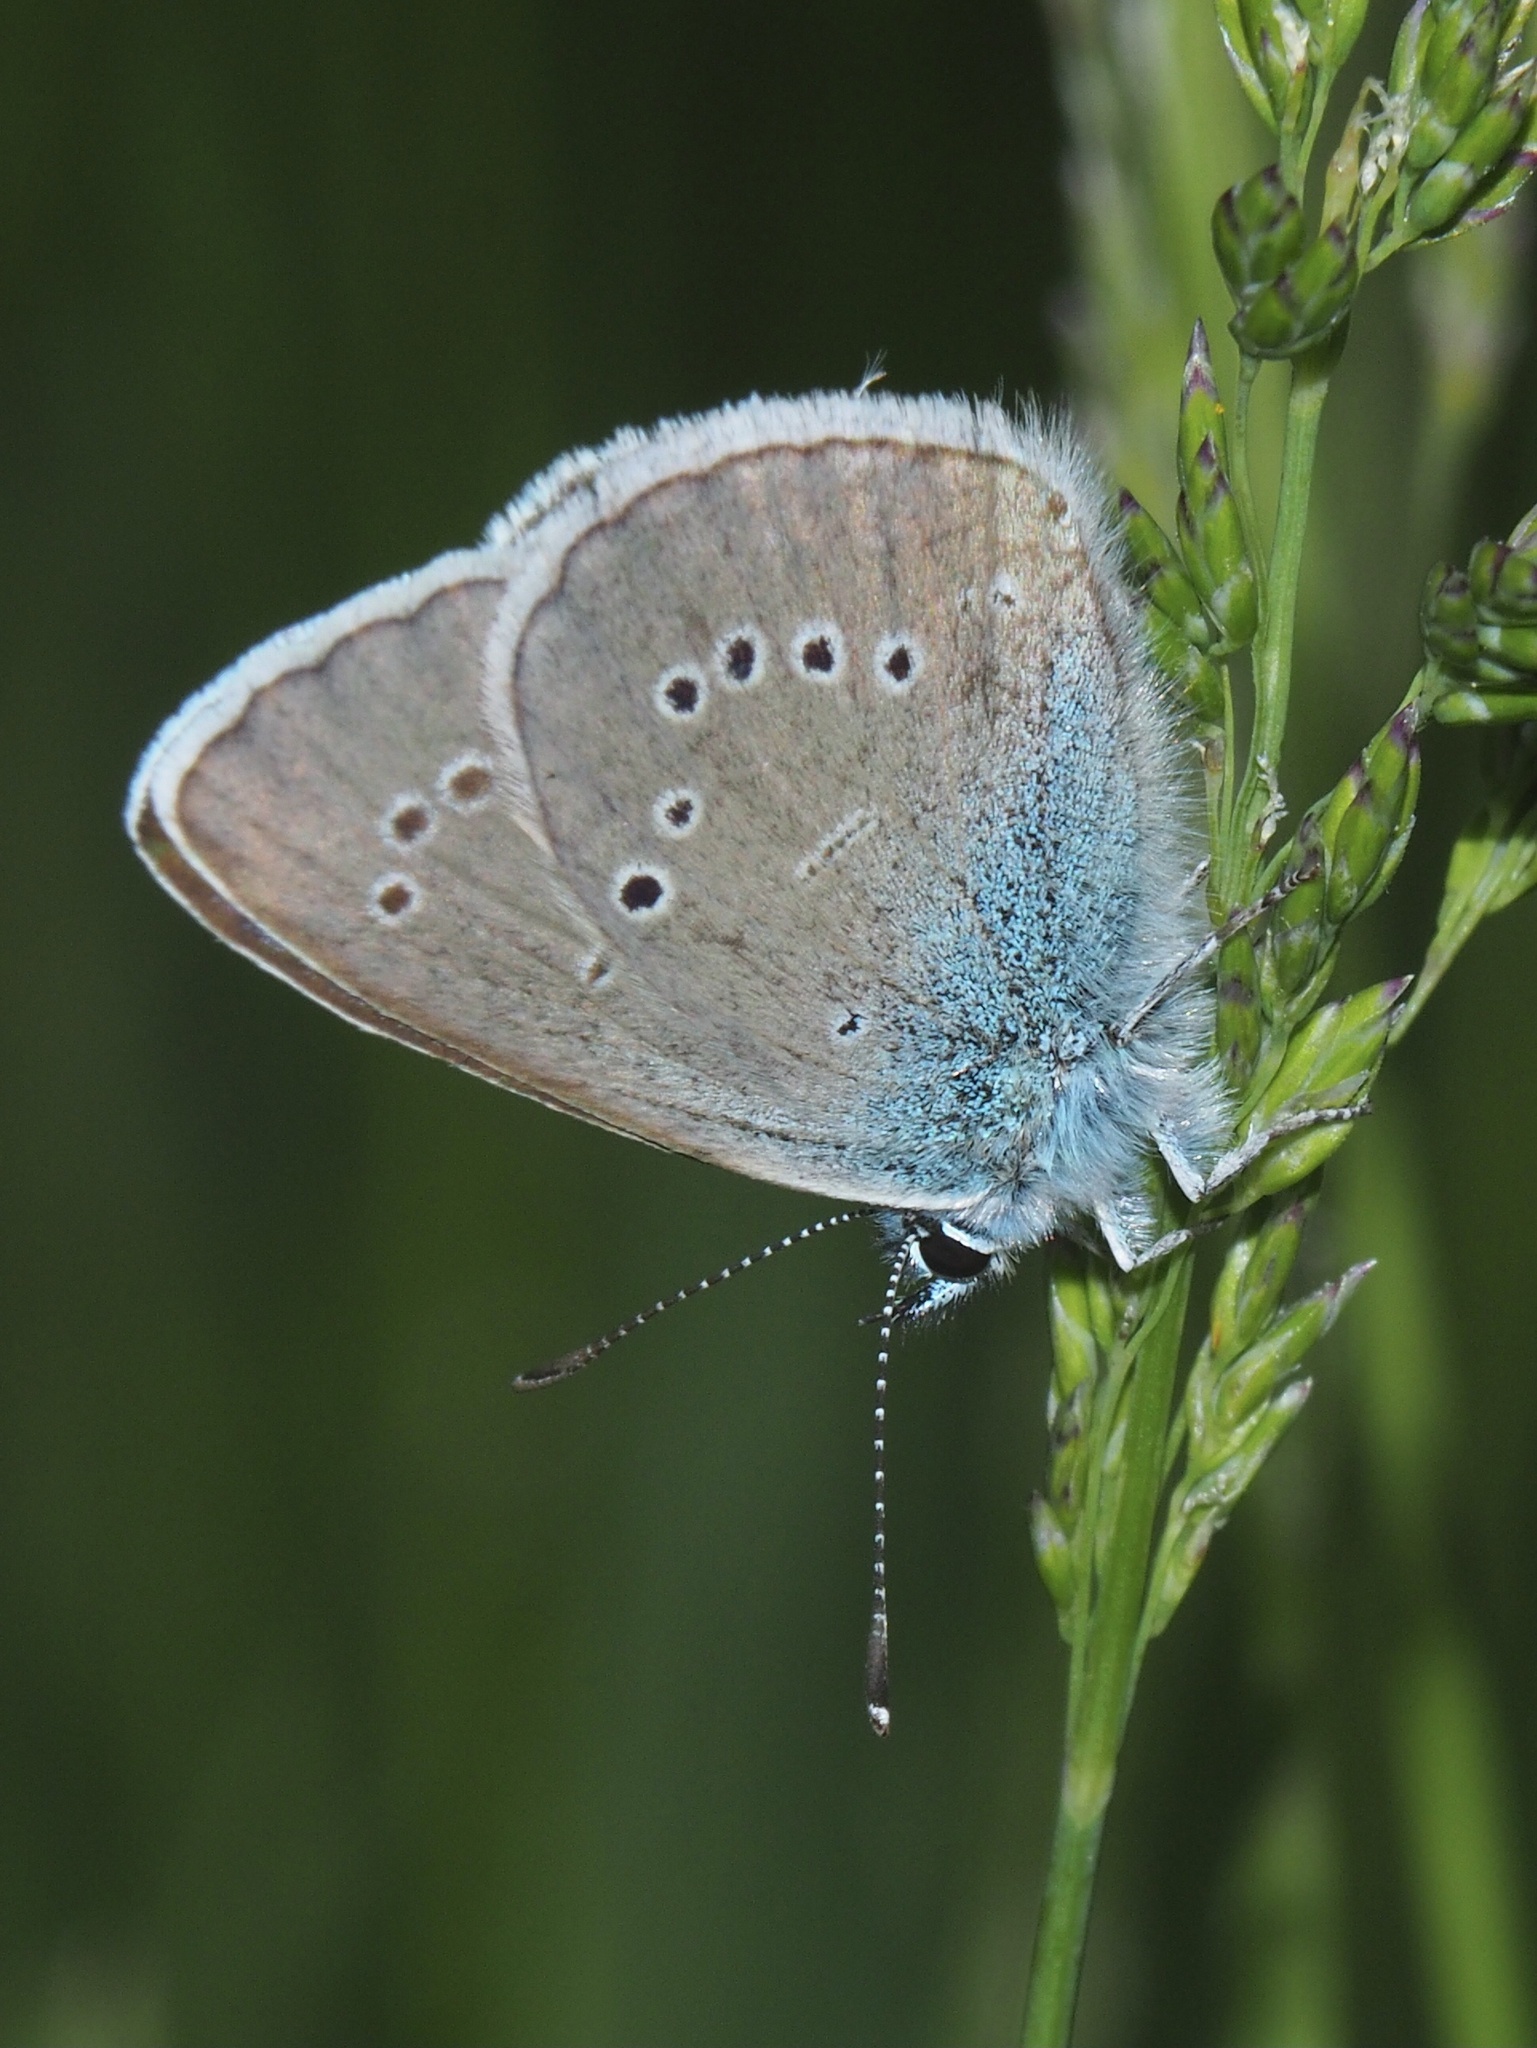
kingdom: Animalia
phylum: Arthropoda
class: Insecta
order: Lepidoptera
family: Lycaenidae
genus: Cyaniris
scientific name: Cyaniris semiargus
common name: Mazarine blue
